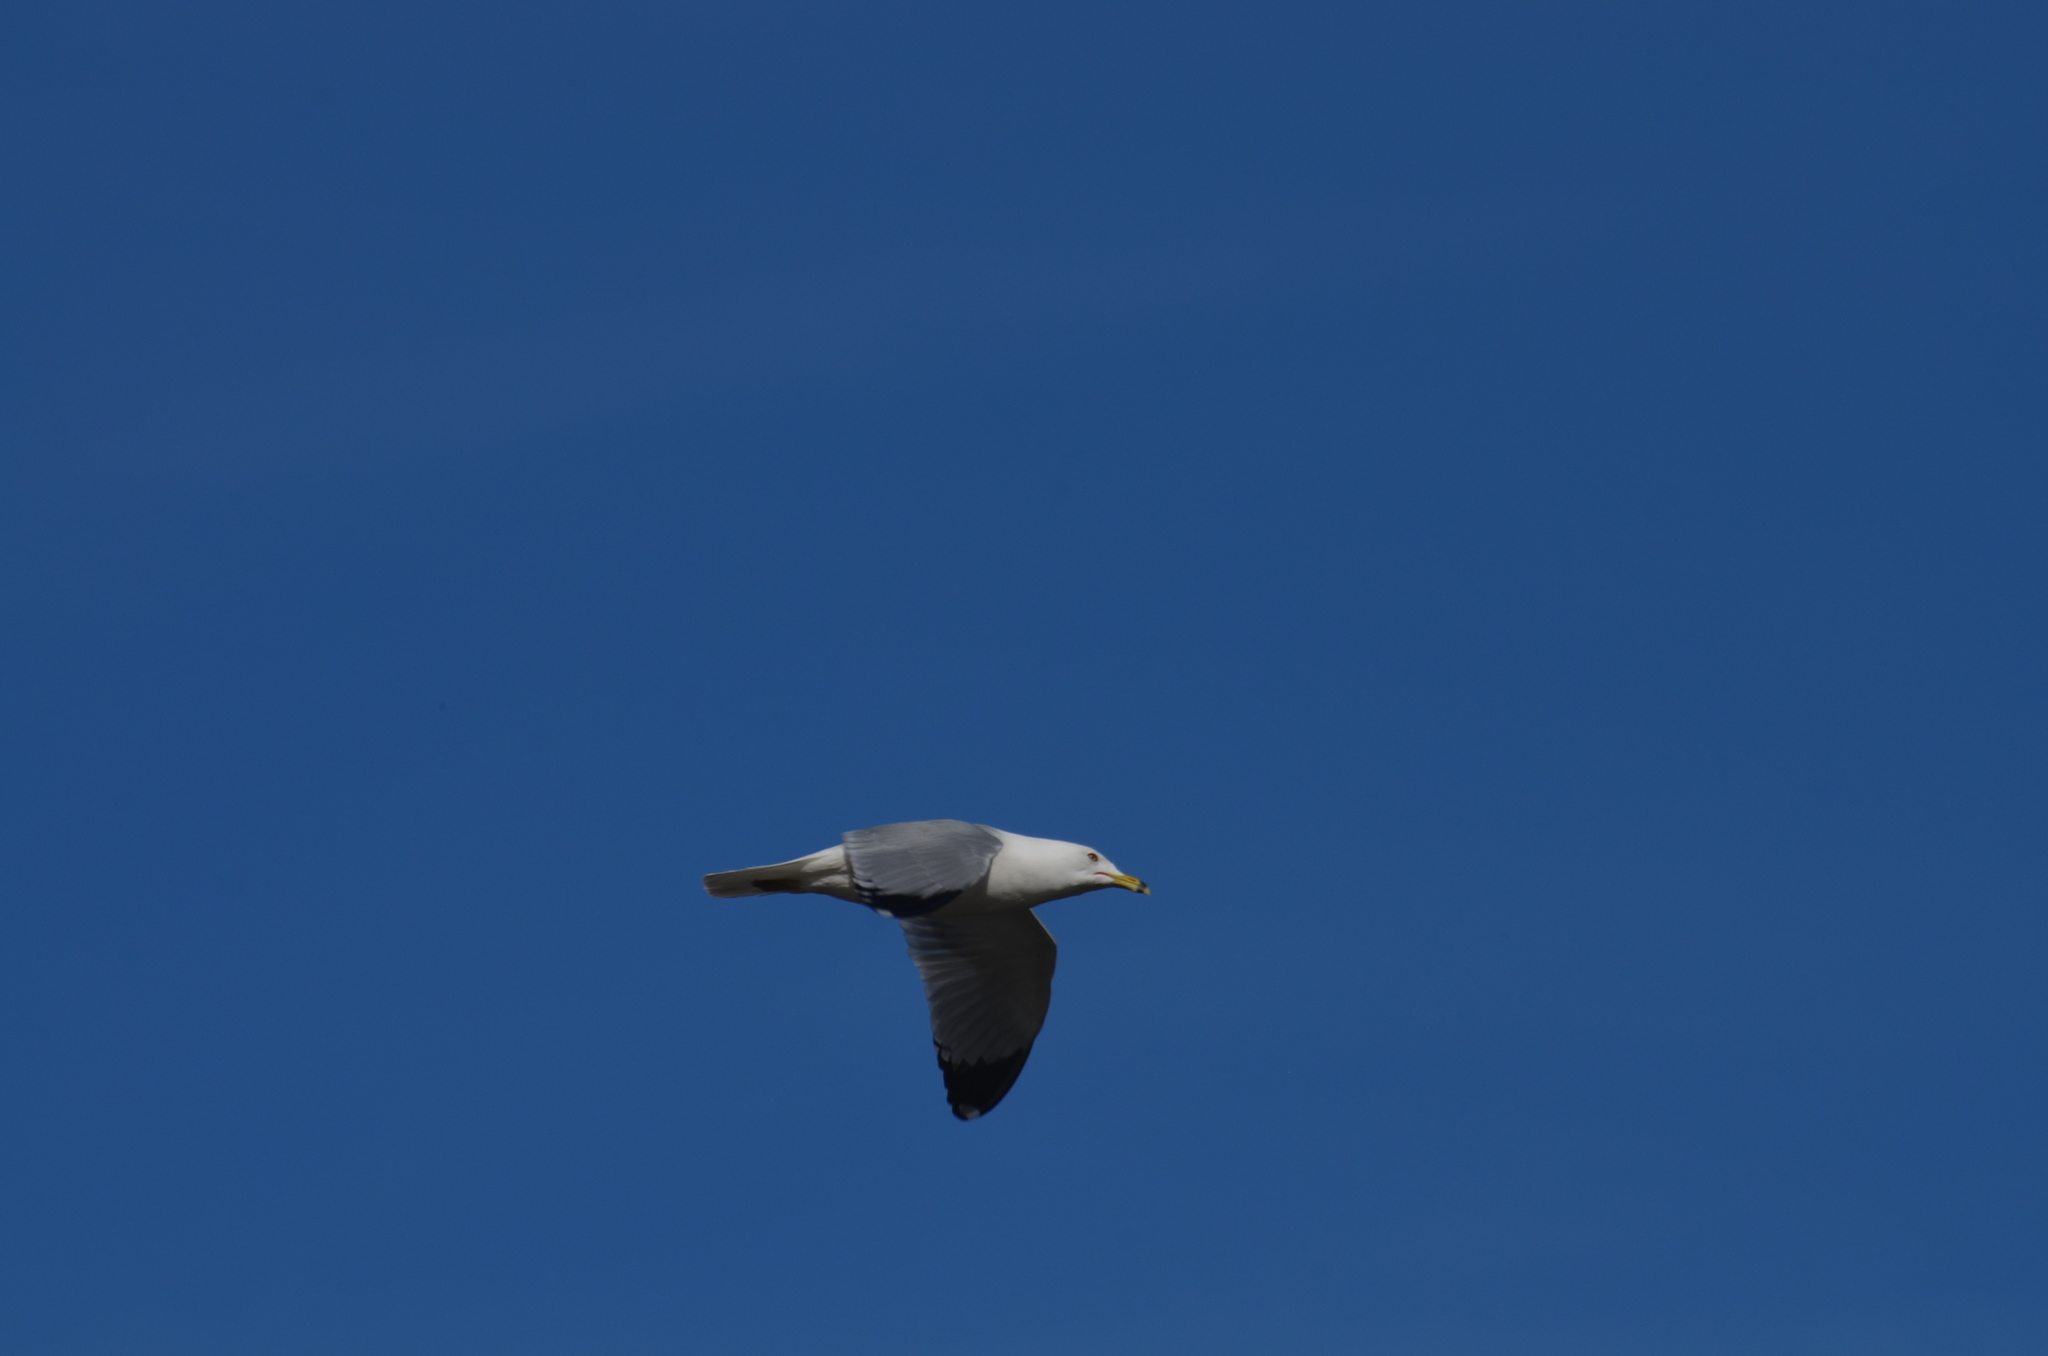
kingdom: Animalia
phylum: Chordata
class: Aves
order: Charadriiformes
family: Laridae
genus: Larus
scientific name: Larus delawarensis
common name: Ring-billed gull
